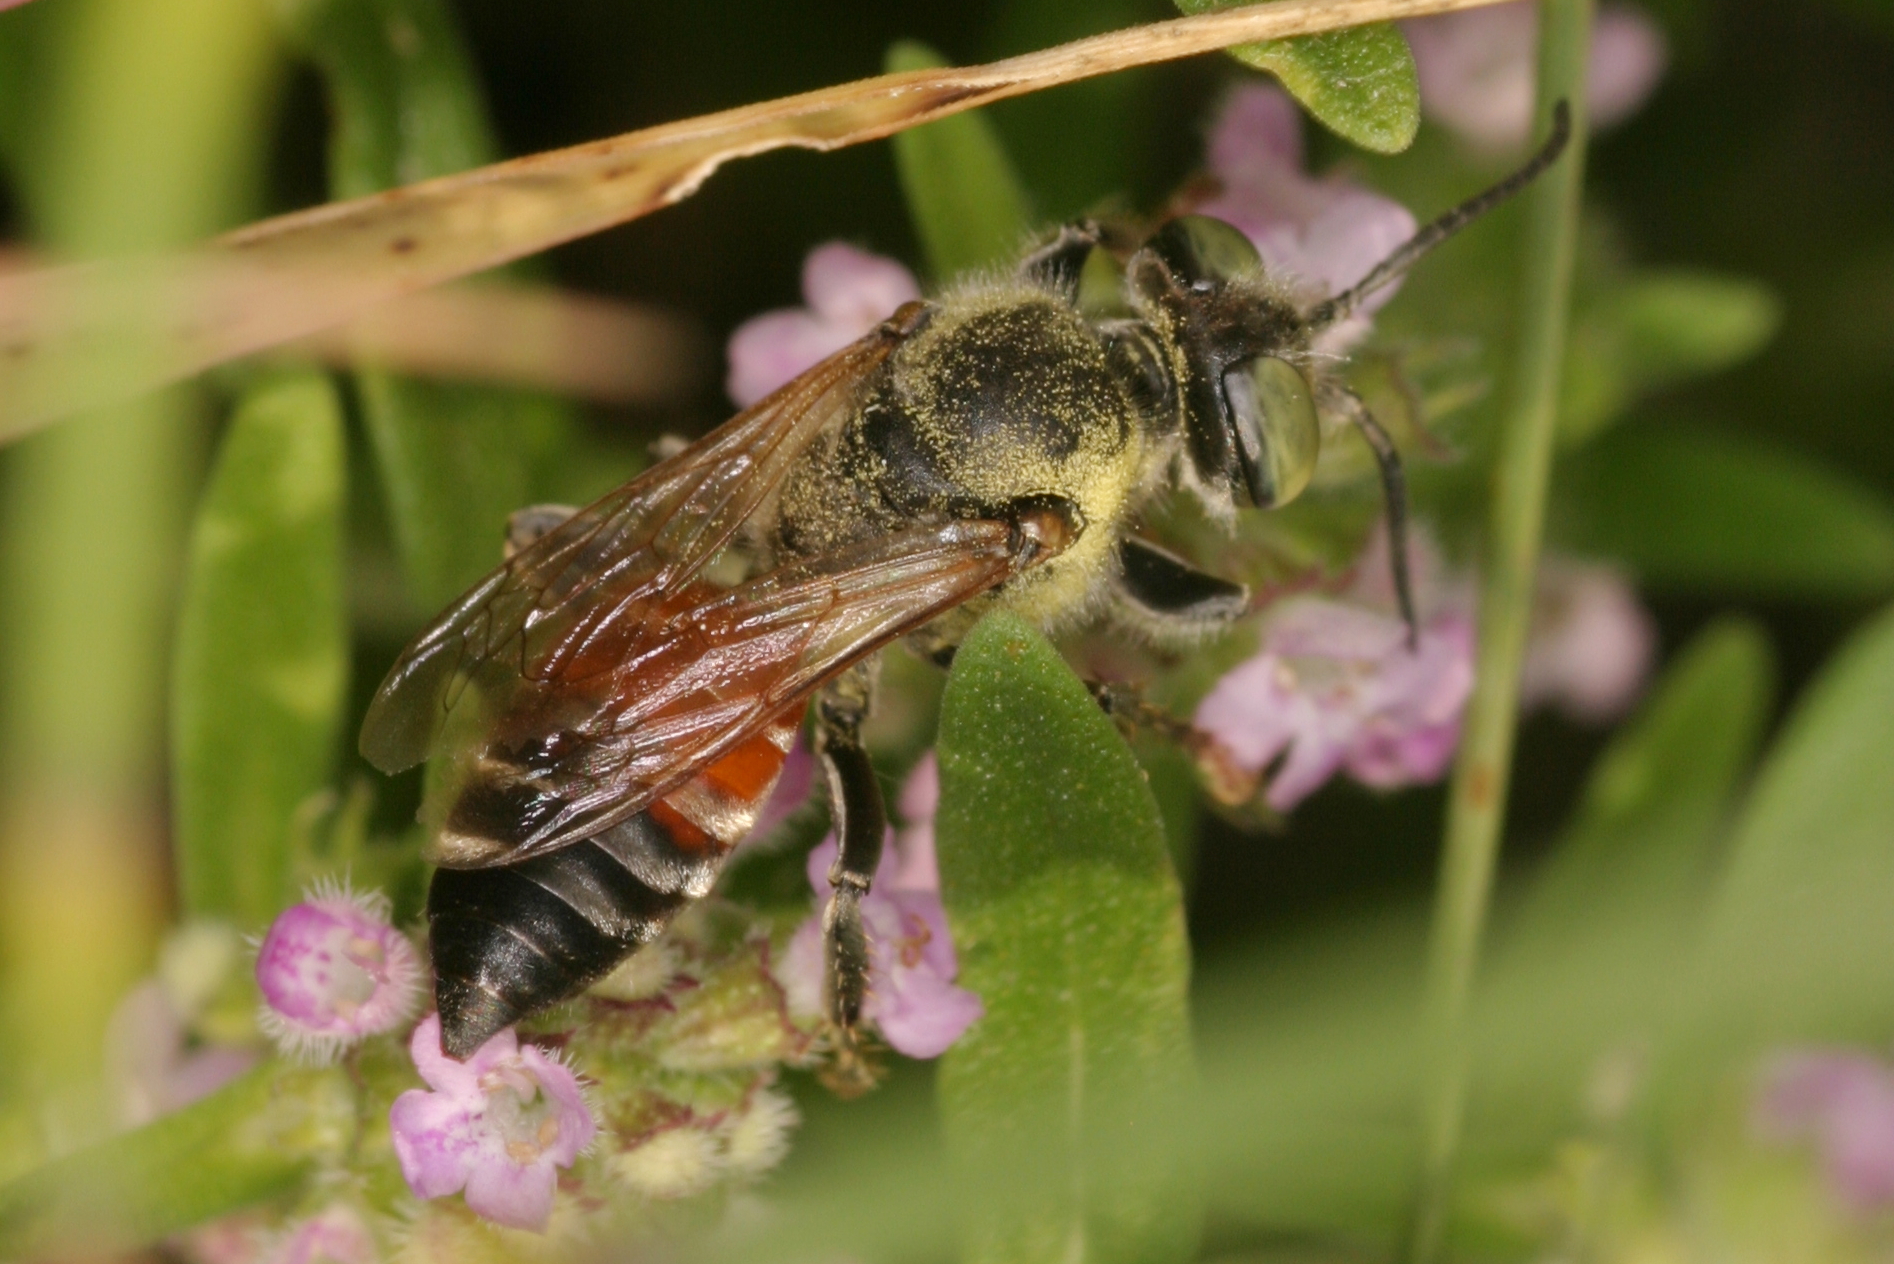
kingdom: Animalia
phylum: Arthropoda
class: Insecta
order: Hymenoptera
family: Crabronidae
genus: Tachytes
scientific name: Tachytes panzeri
